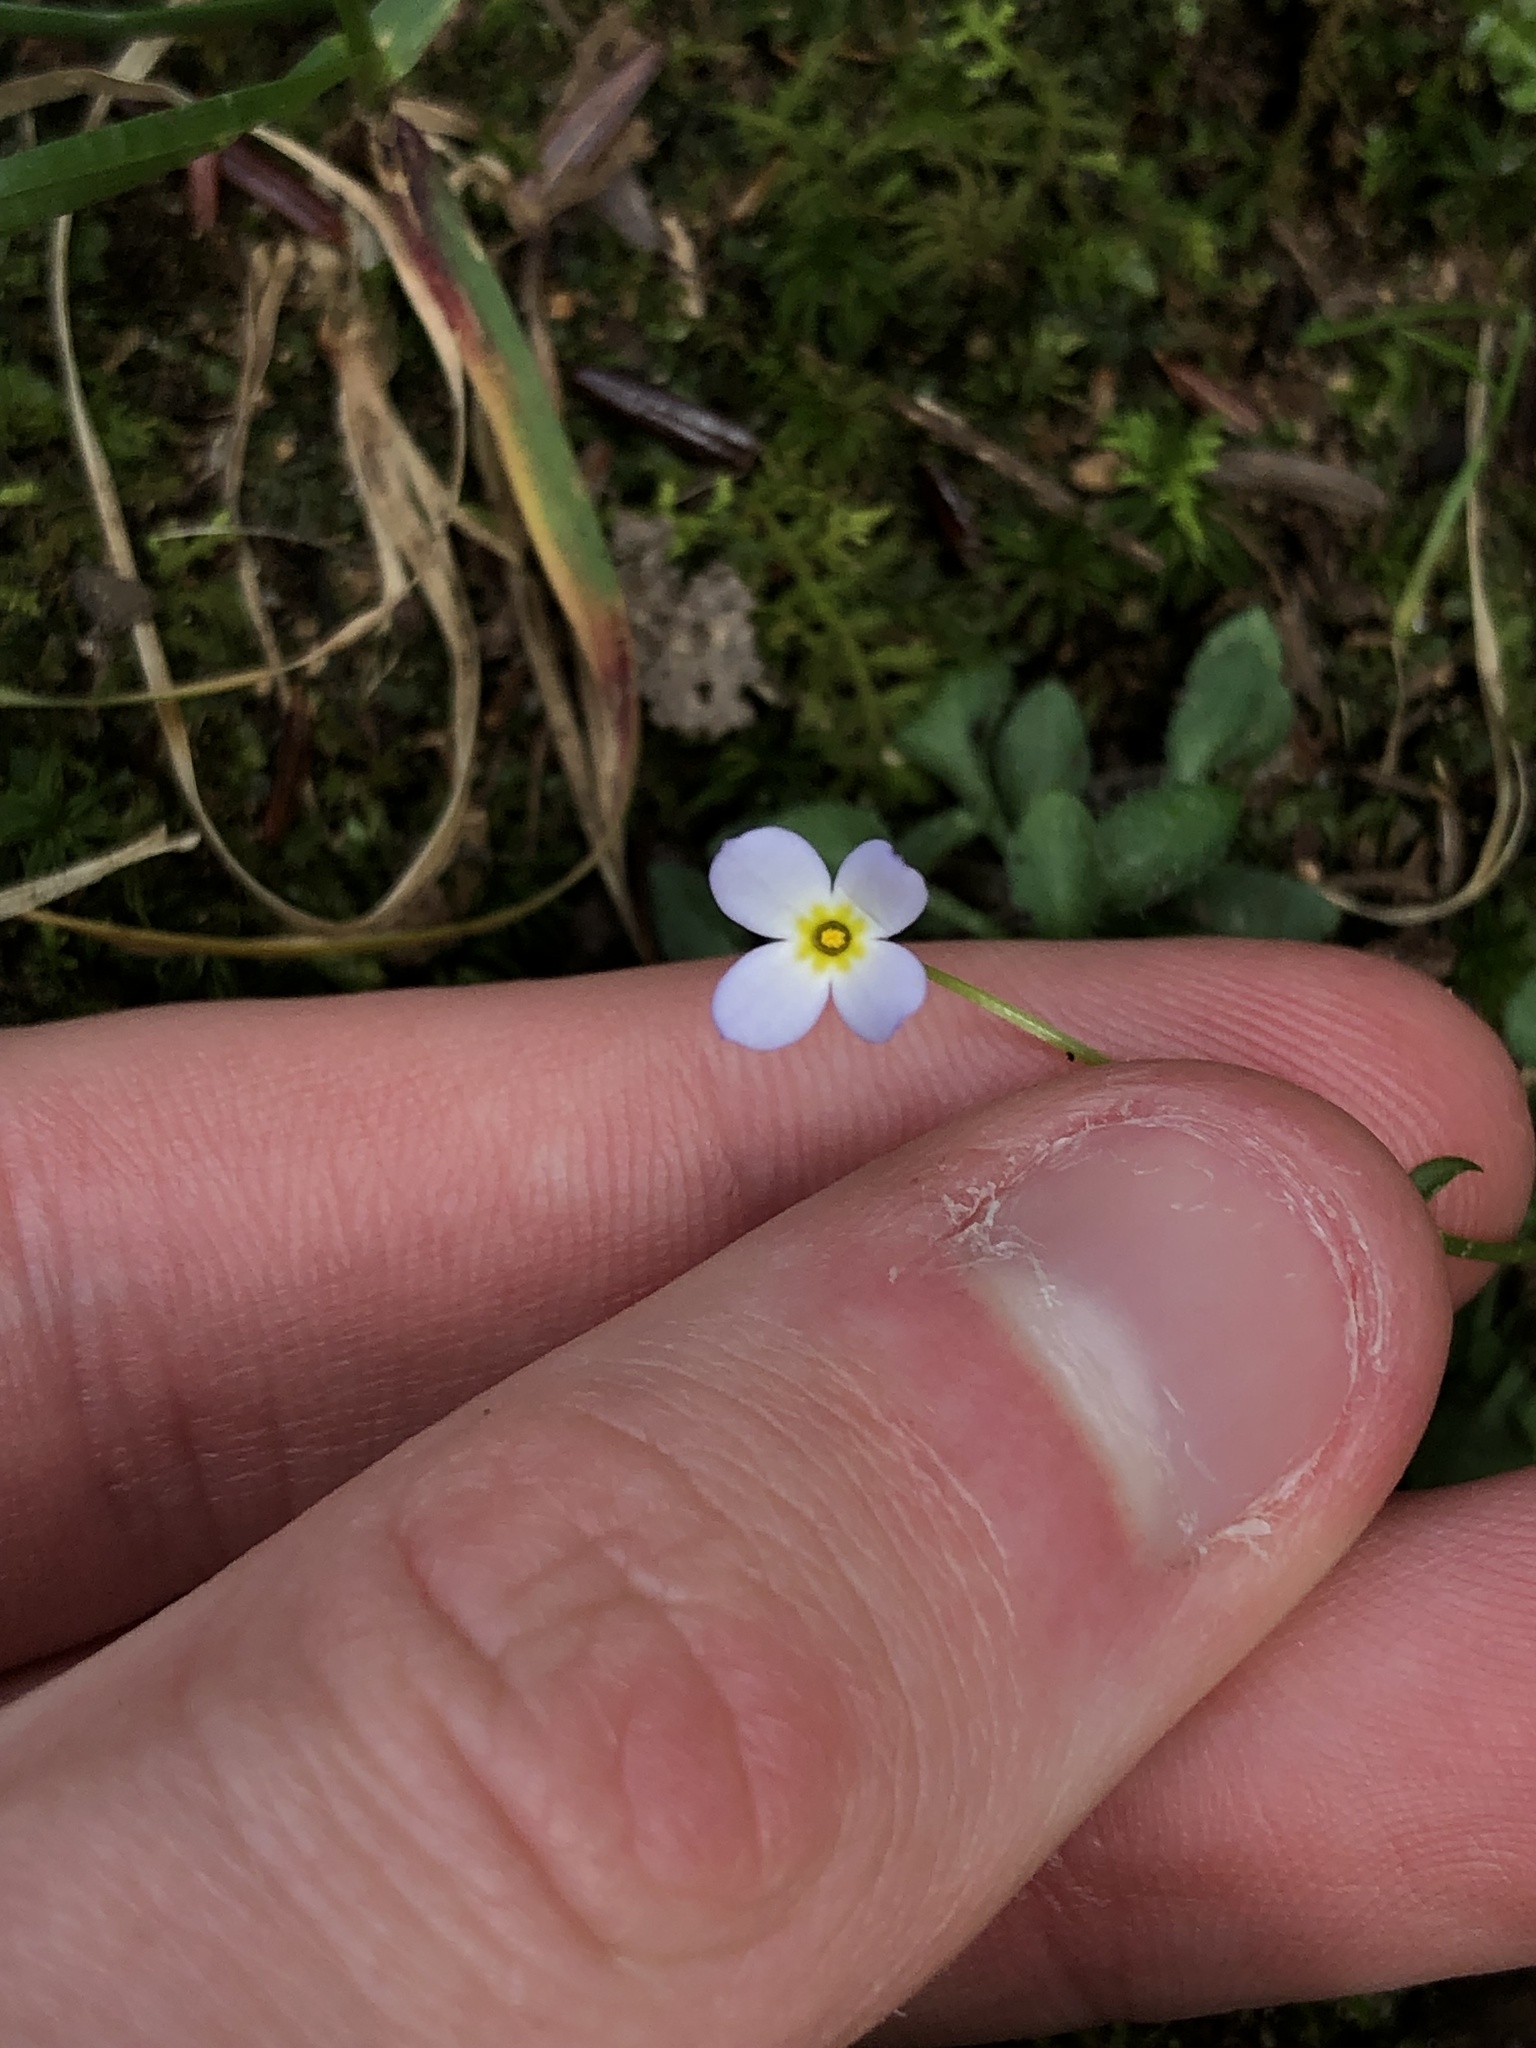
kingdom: Plantae
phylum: Tracheophyta
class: Magnoliopsida
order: Gentianales
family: Rubiaceae
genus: Houstonia
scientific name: Houstonia caerulea
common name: Bluets
